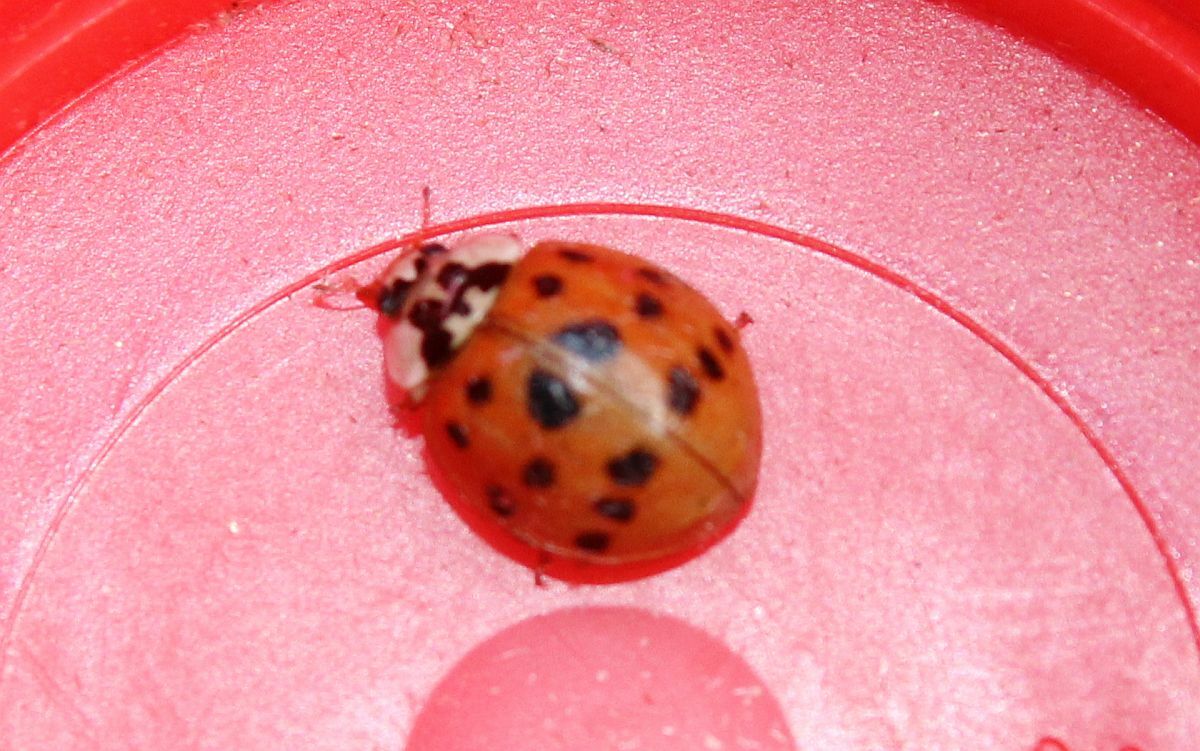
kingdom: Animalia
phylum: Arthropoda
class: Insecta
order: Coleoptera
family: Coccinellidae
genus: Harmonia
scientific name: Harmonia axyridis
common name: Harlequin ladybird
